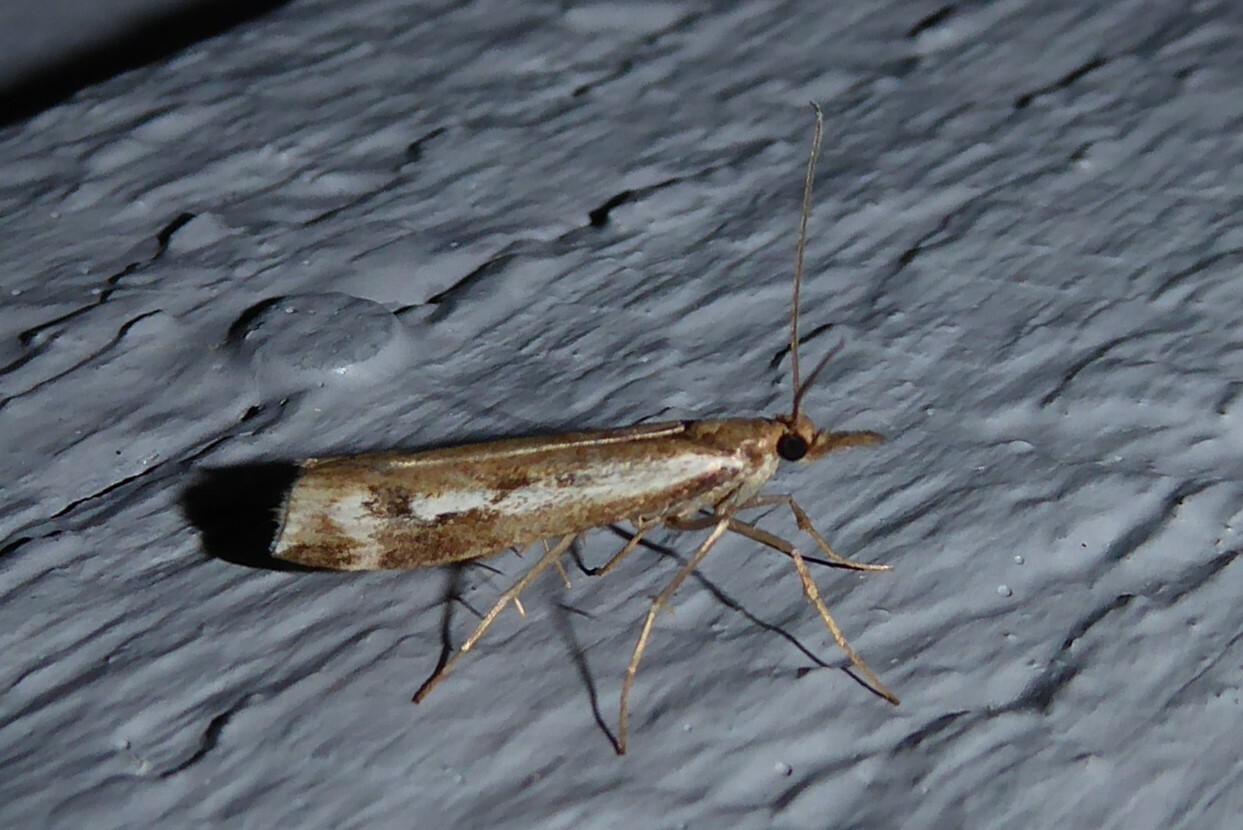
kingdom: Animalia
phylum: Arthropoda
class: Insecta
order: Lepidoptera
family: Crambidae
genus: Orocrambus
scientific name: Orocrambus vulgaris
